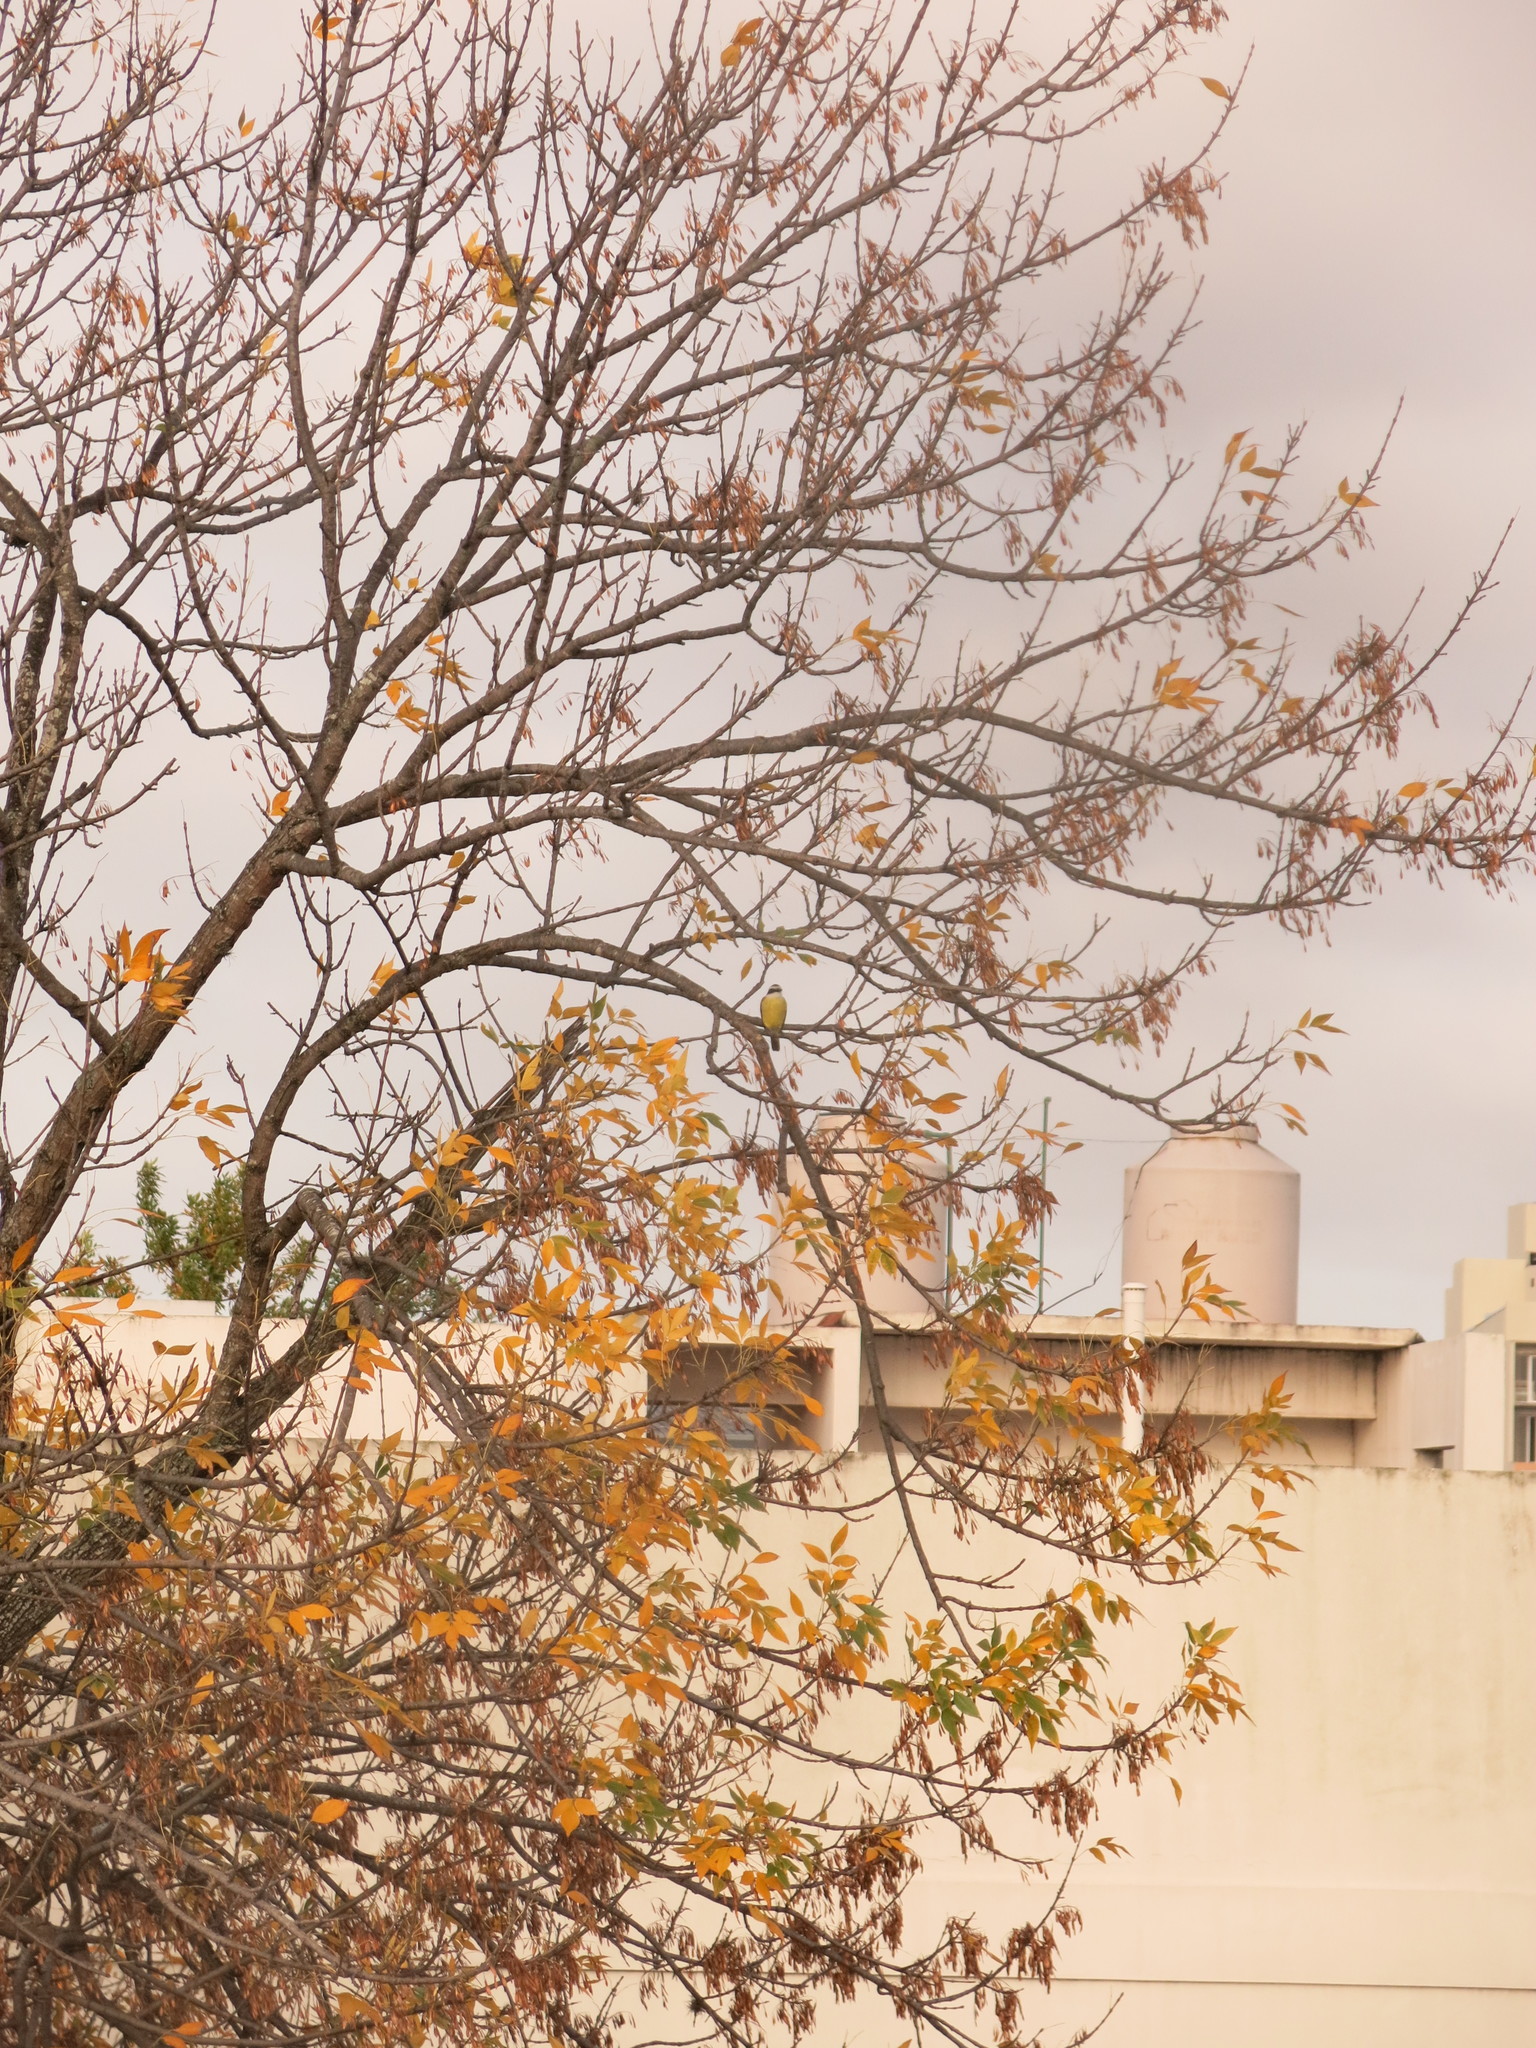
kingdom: Animalia
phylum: Chordata
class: Aves
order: Passeriformes
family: Tyrannidae
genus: Pitangus
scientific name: Pitangus sulphuratus
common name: Great kiskadee
